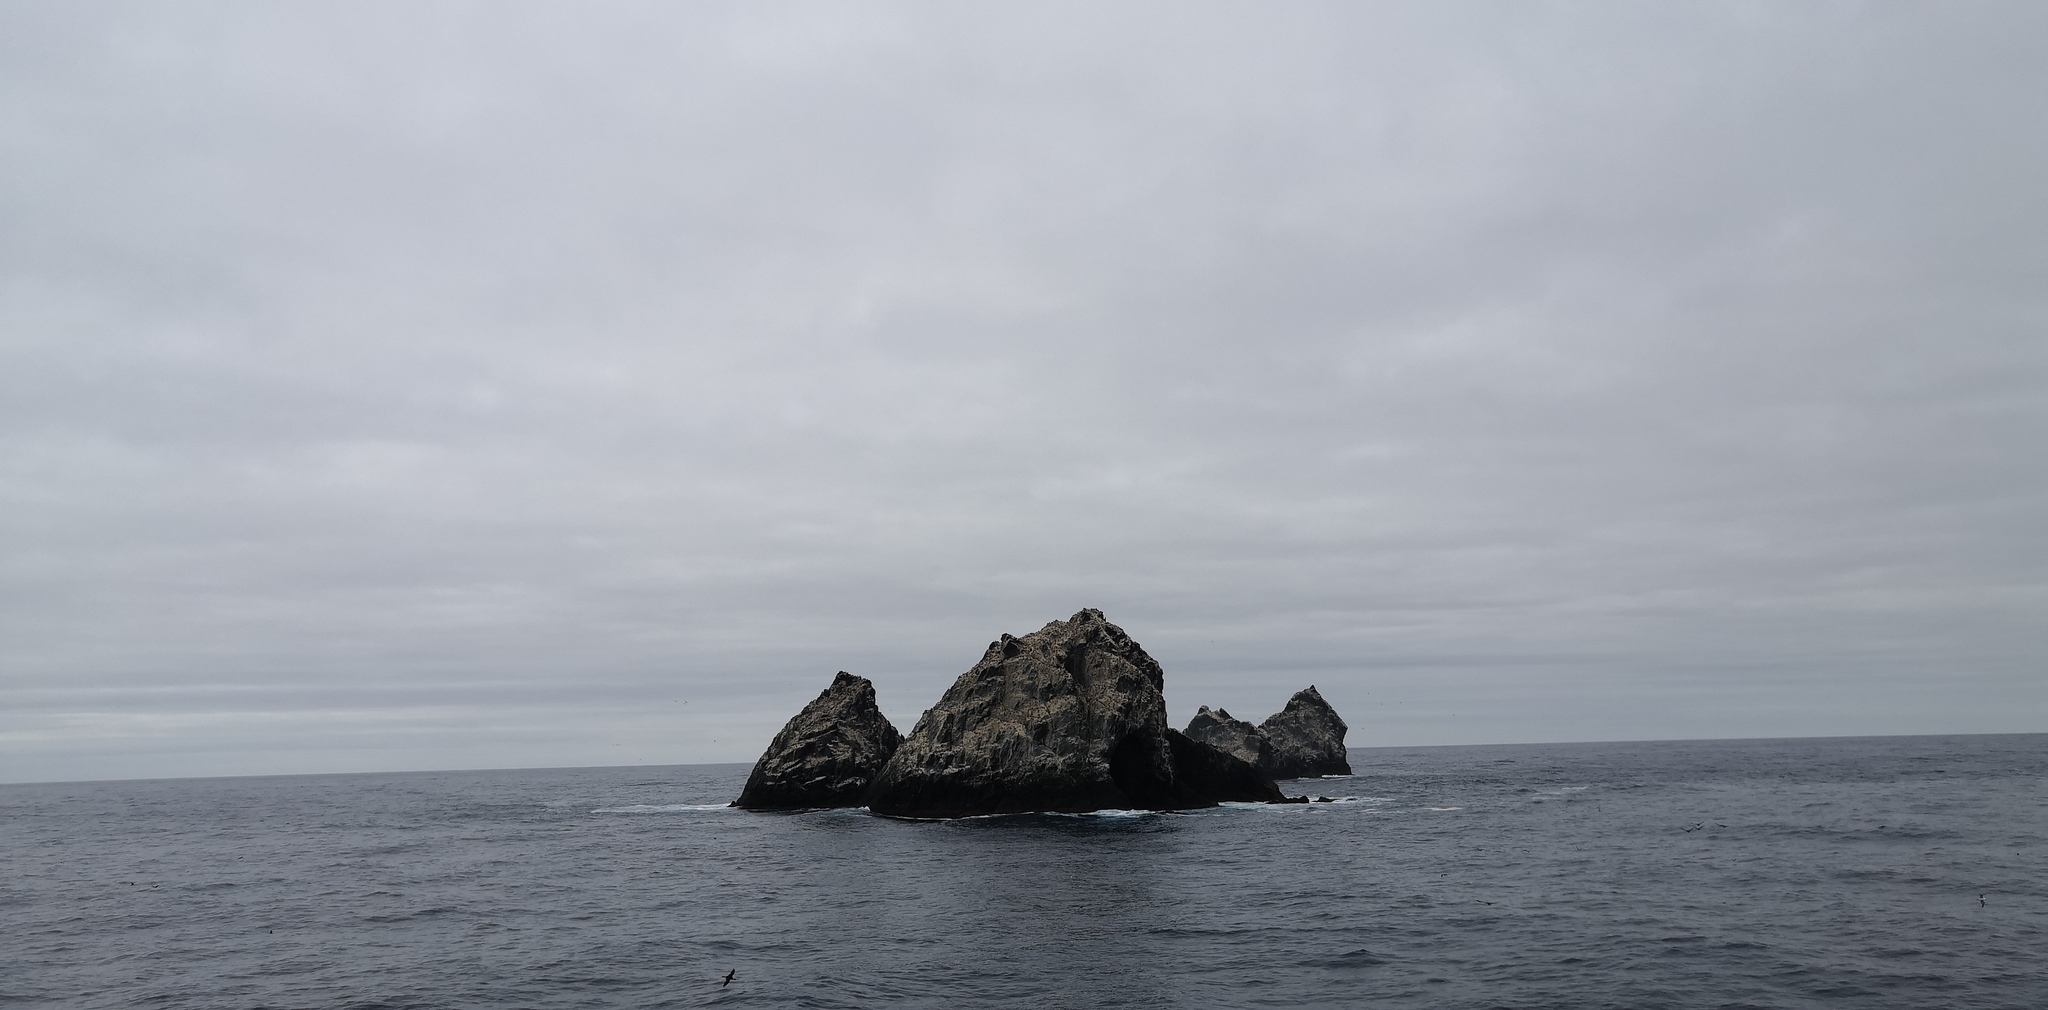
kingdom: Animalia
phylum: Chordata
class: Aves
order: Suliformes
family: Phalacrocoracidae
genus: Leucocarbo
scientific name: Leucocarbo atriceps
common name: Imperial shag
